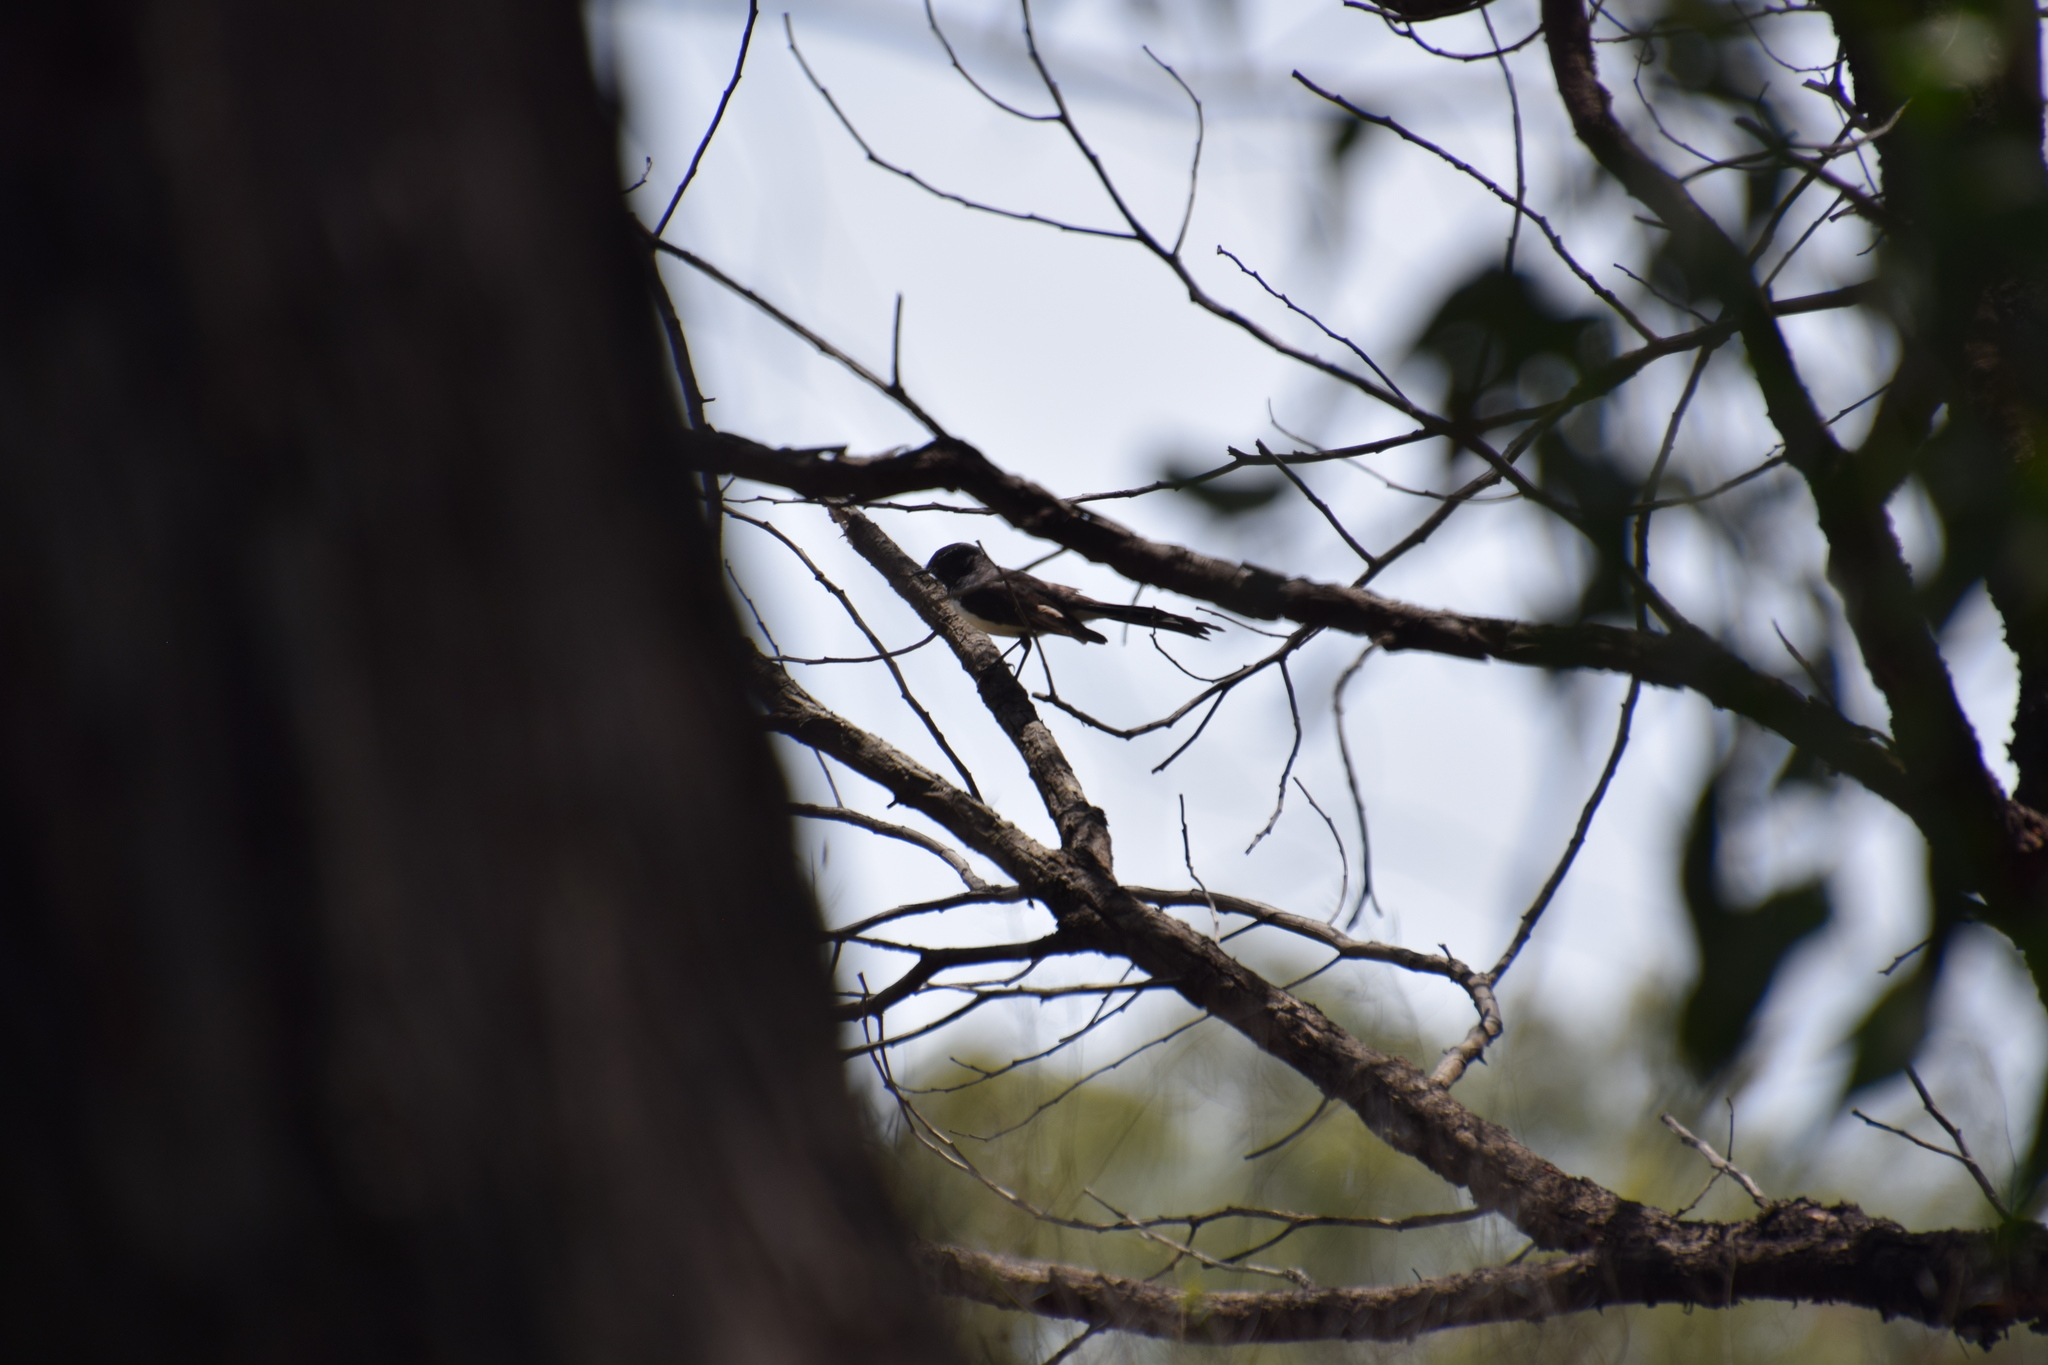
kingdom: Animalia
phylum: Chordata
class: Aves
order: Passeriformes
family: Rhipiduridae
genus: Rhipidura
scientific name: Rhipidura leucophrys
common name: Willie wagtail
